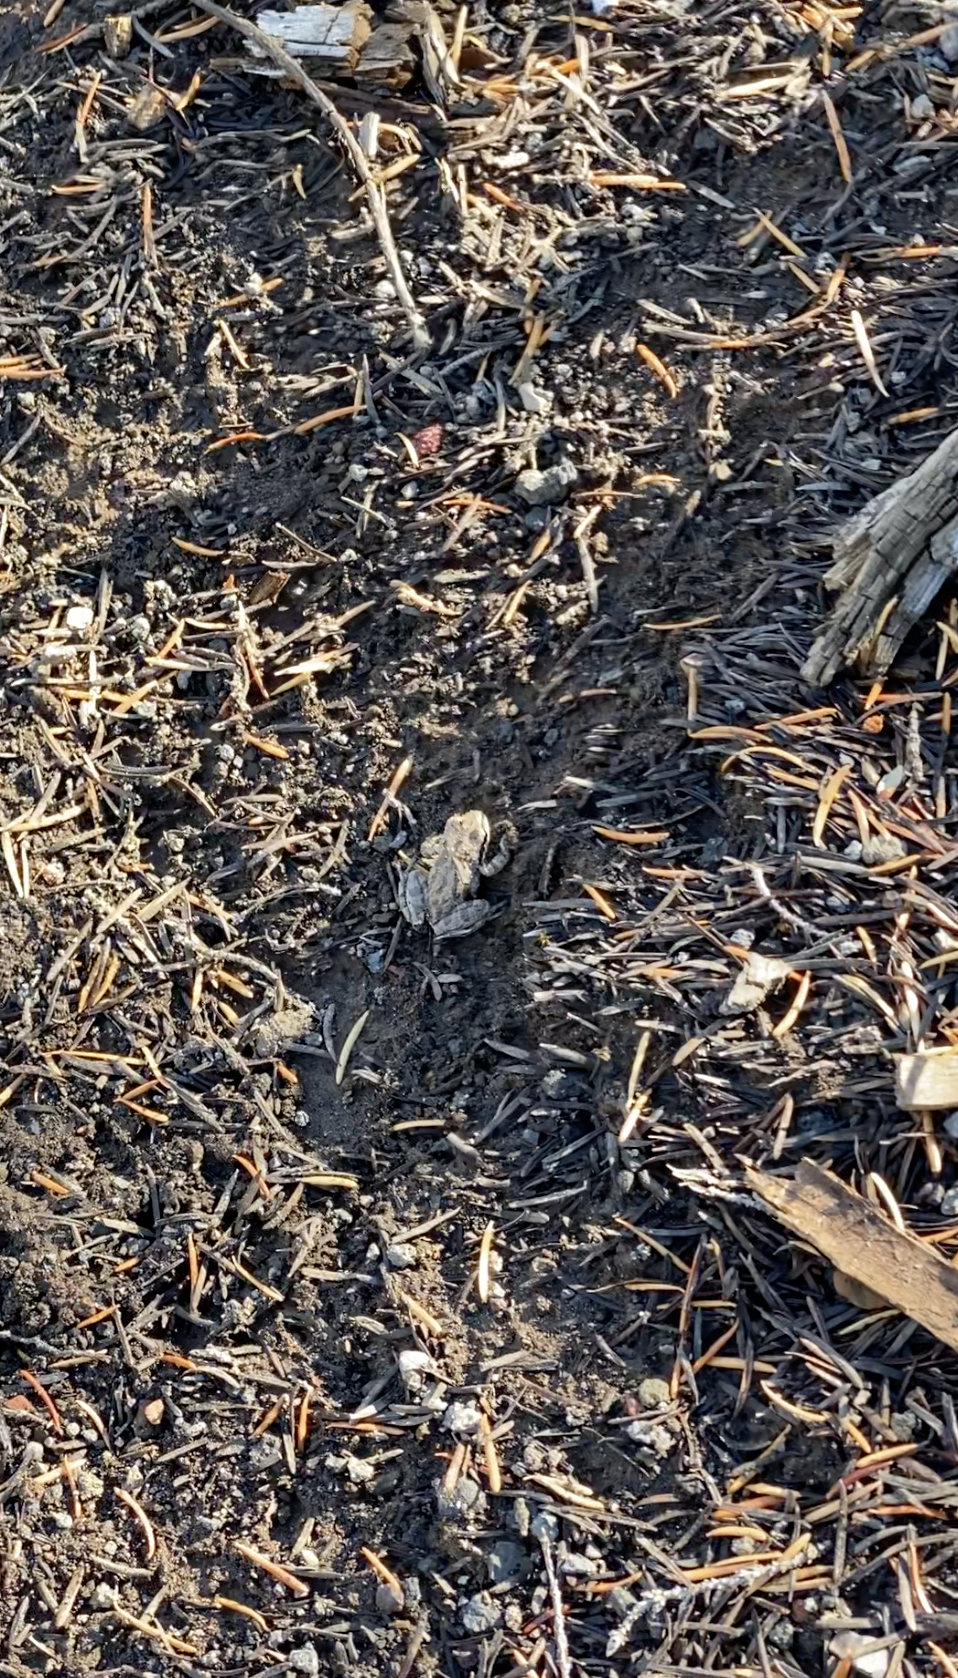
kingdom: Animalia
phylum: Chordata
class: Amphibia
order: Anura
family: Hylidae
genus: Pseudacris
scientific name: Pseudacris regilla
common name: Pacific chorus frog
